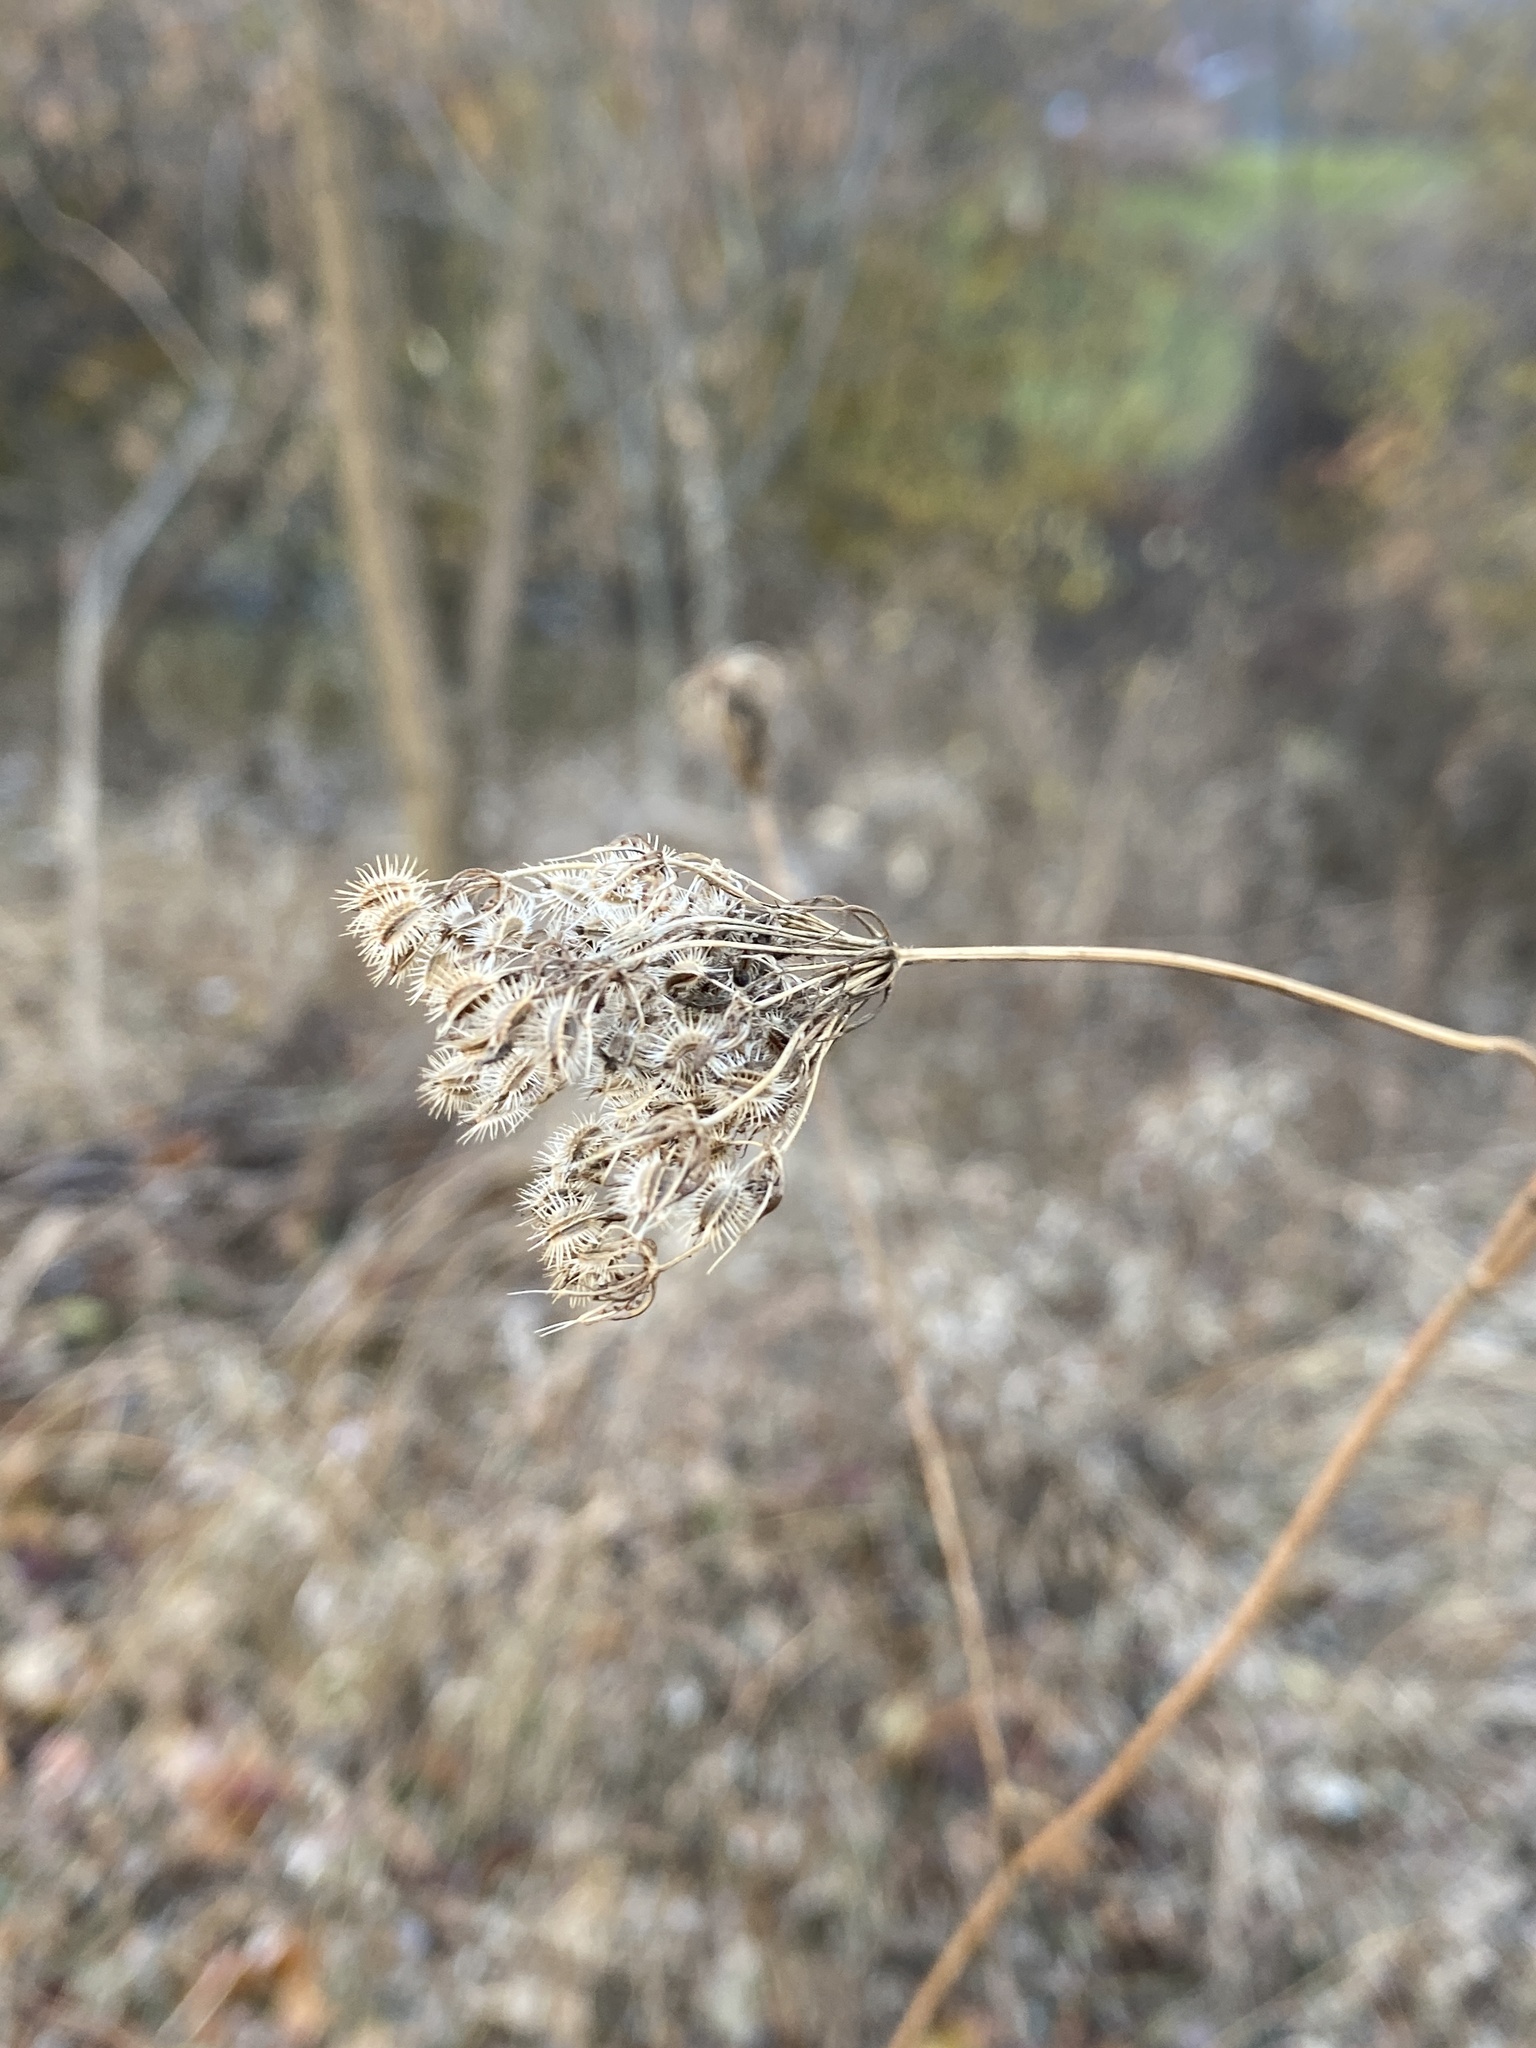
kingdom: Plantae
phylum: Tracheophyta
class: Magnoliopsida
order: Apiales
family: Apiaceae
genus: Daucus
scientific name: Daucus carota
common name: Wild carrot
